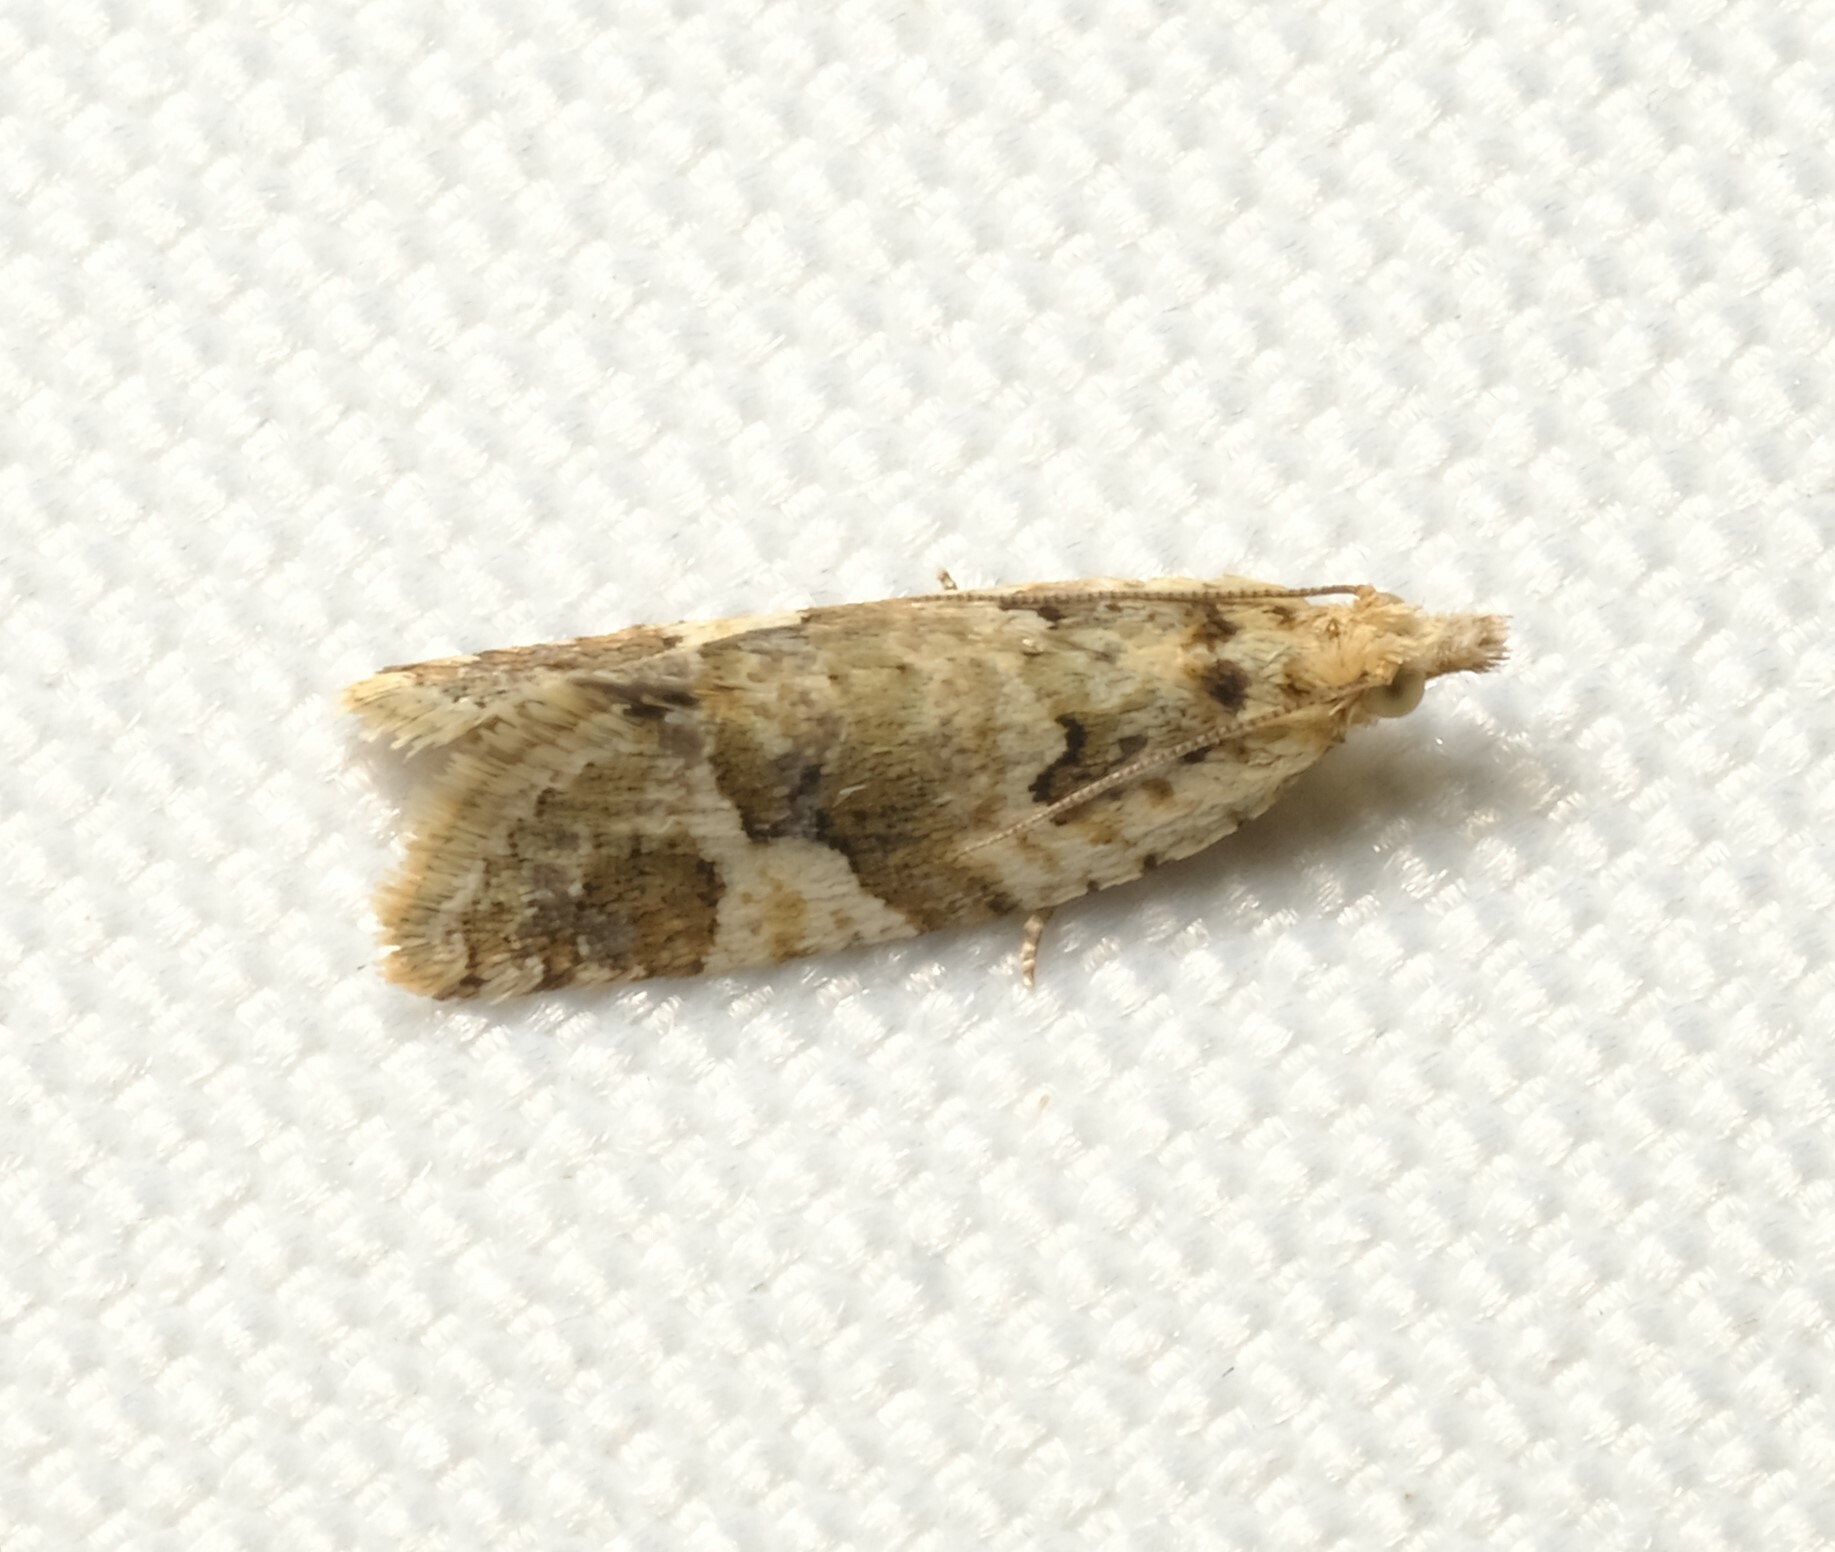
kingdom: Animalia
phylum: Arthropoda
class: Insecta
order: Lepidoptera
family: Tortricidae
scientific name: Tortricidae
